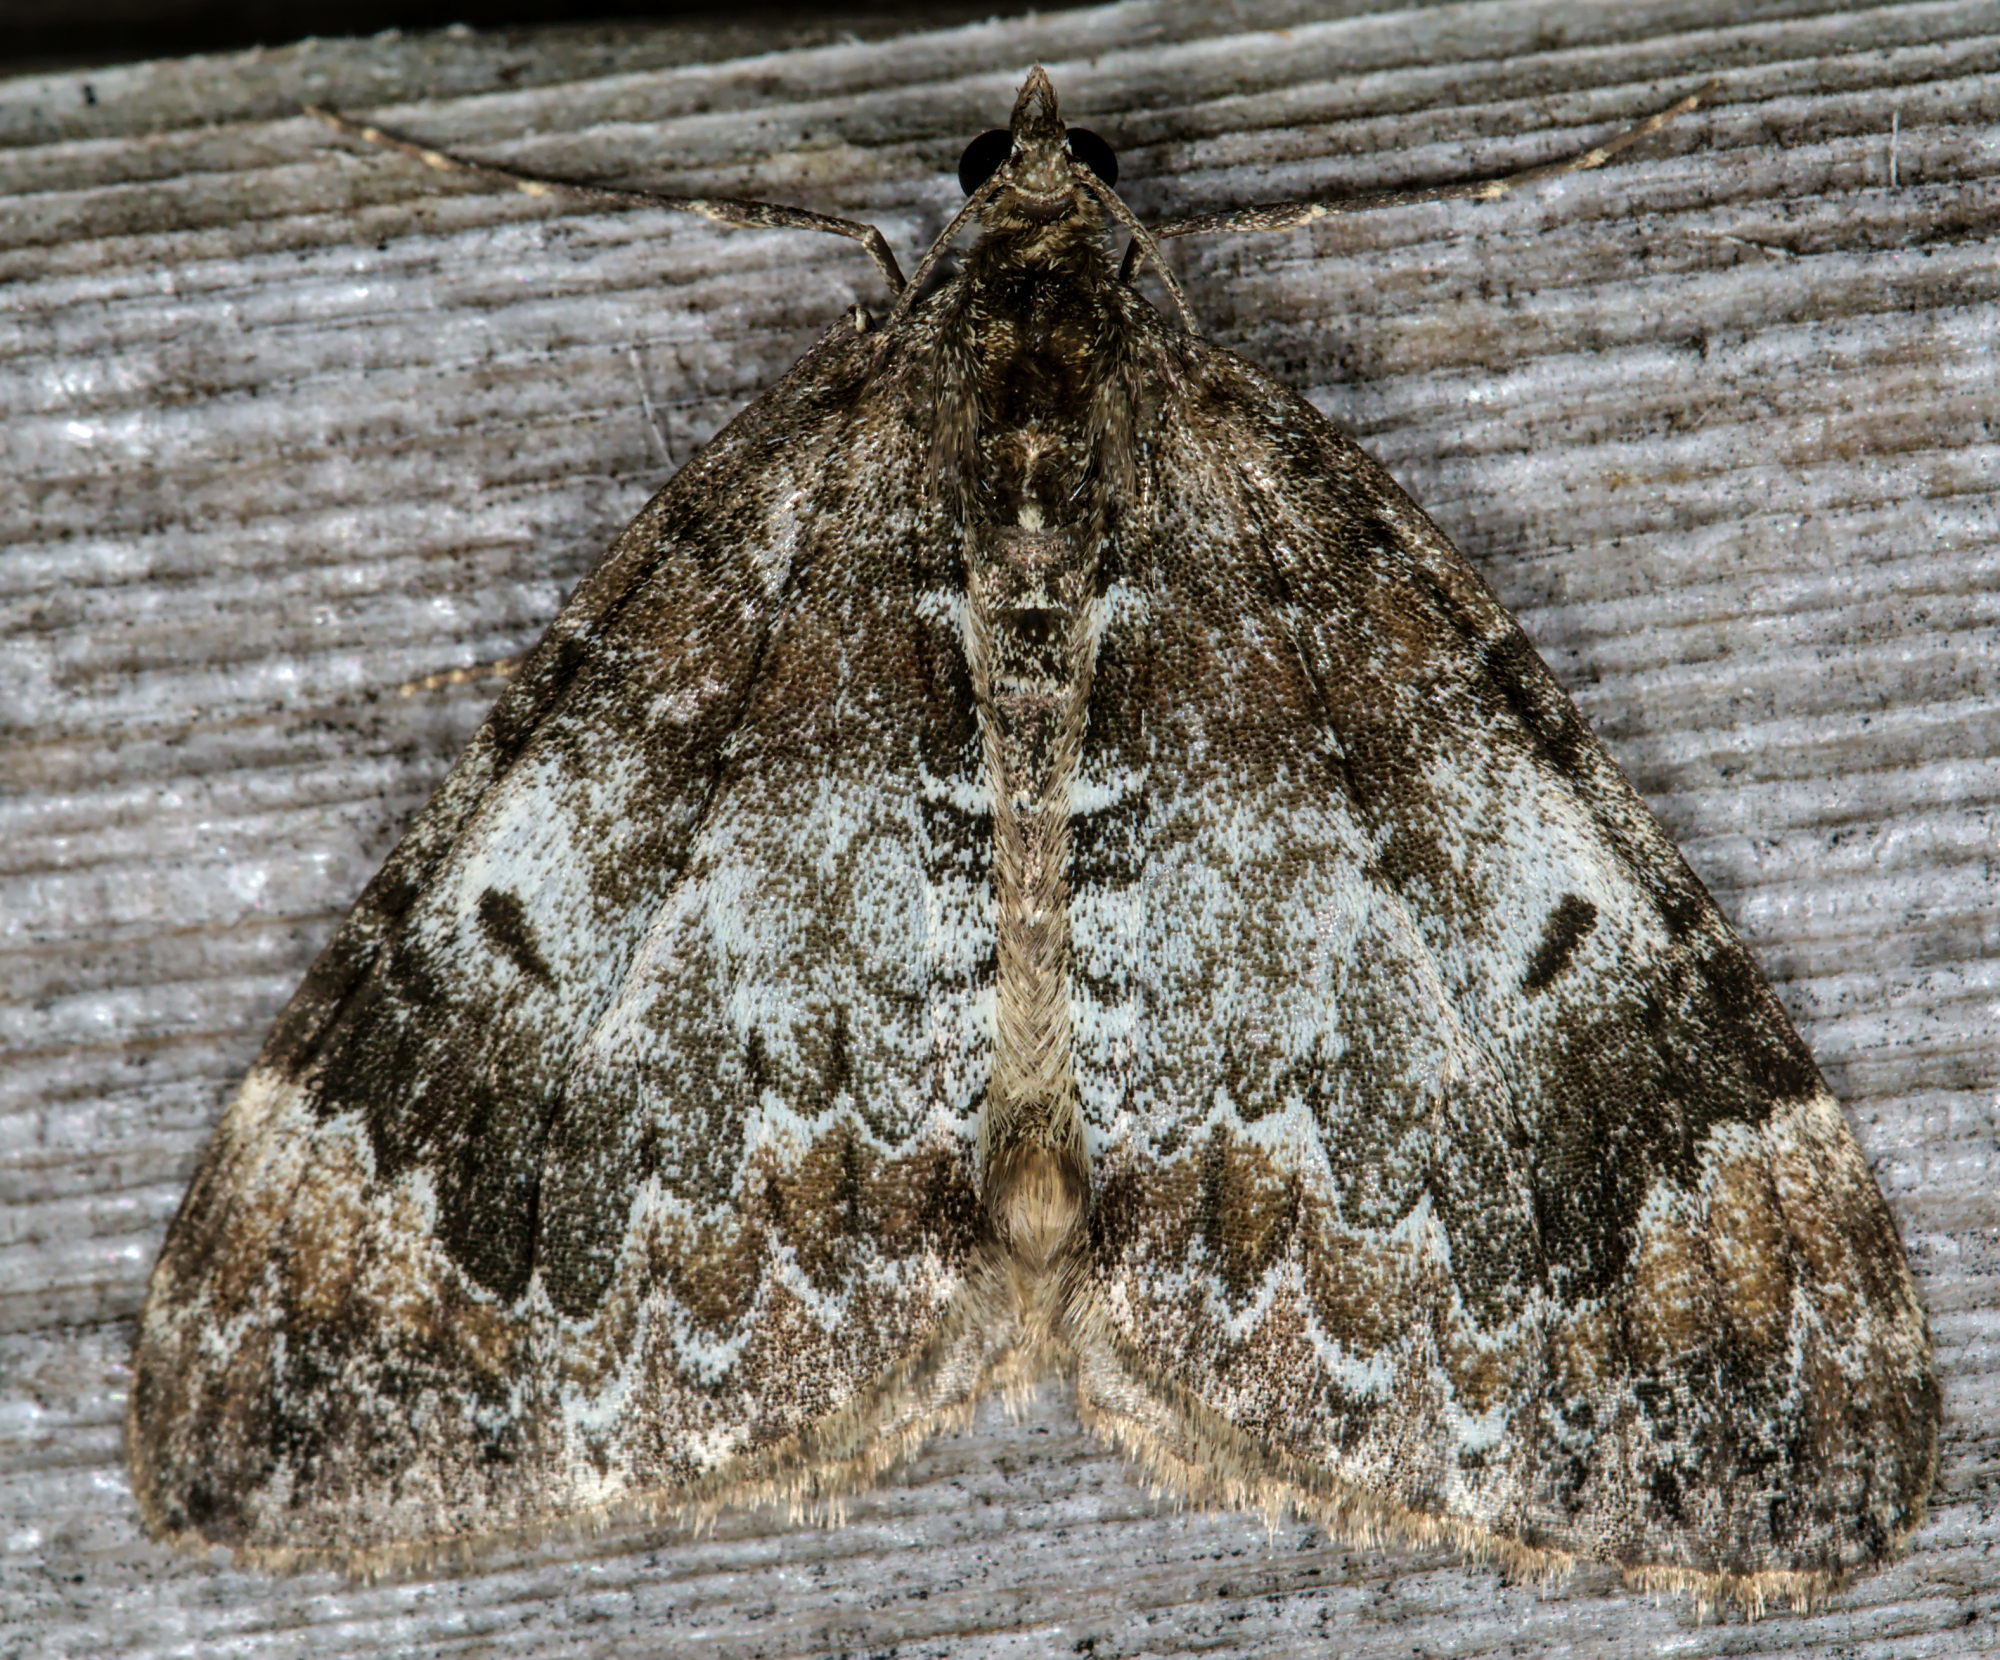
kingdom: Animalia
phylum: Arthropoda
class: Insecta
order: Lepidoptera
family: Geometridae
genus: Dysstroma
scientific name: Dysstroma truncata
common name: Common marbled carpet
